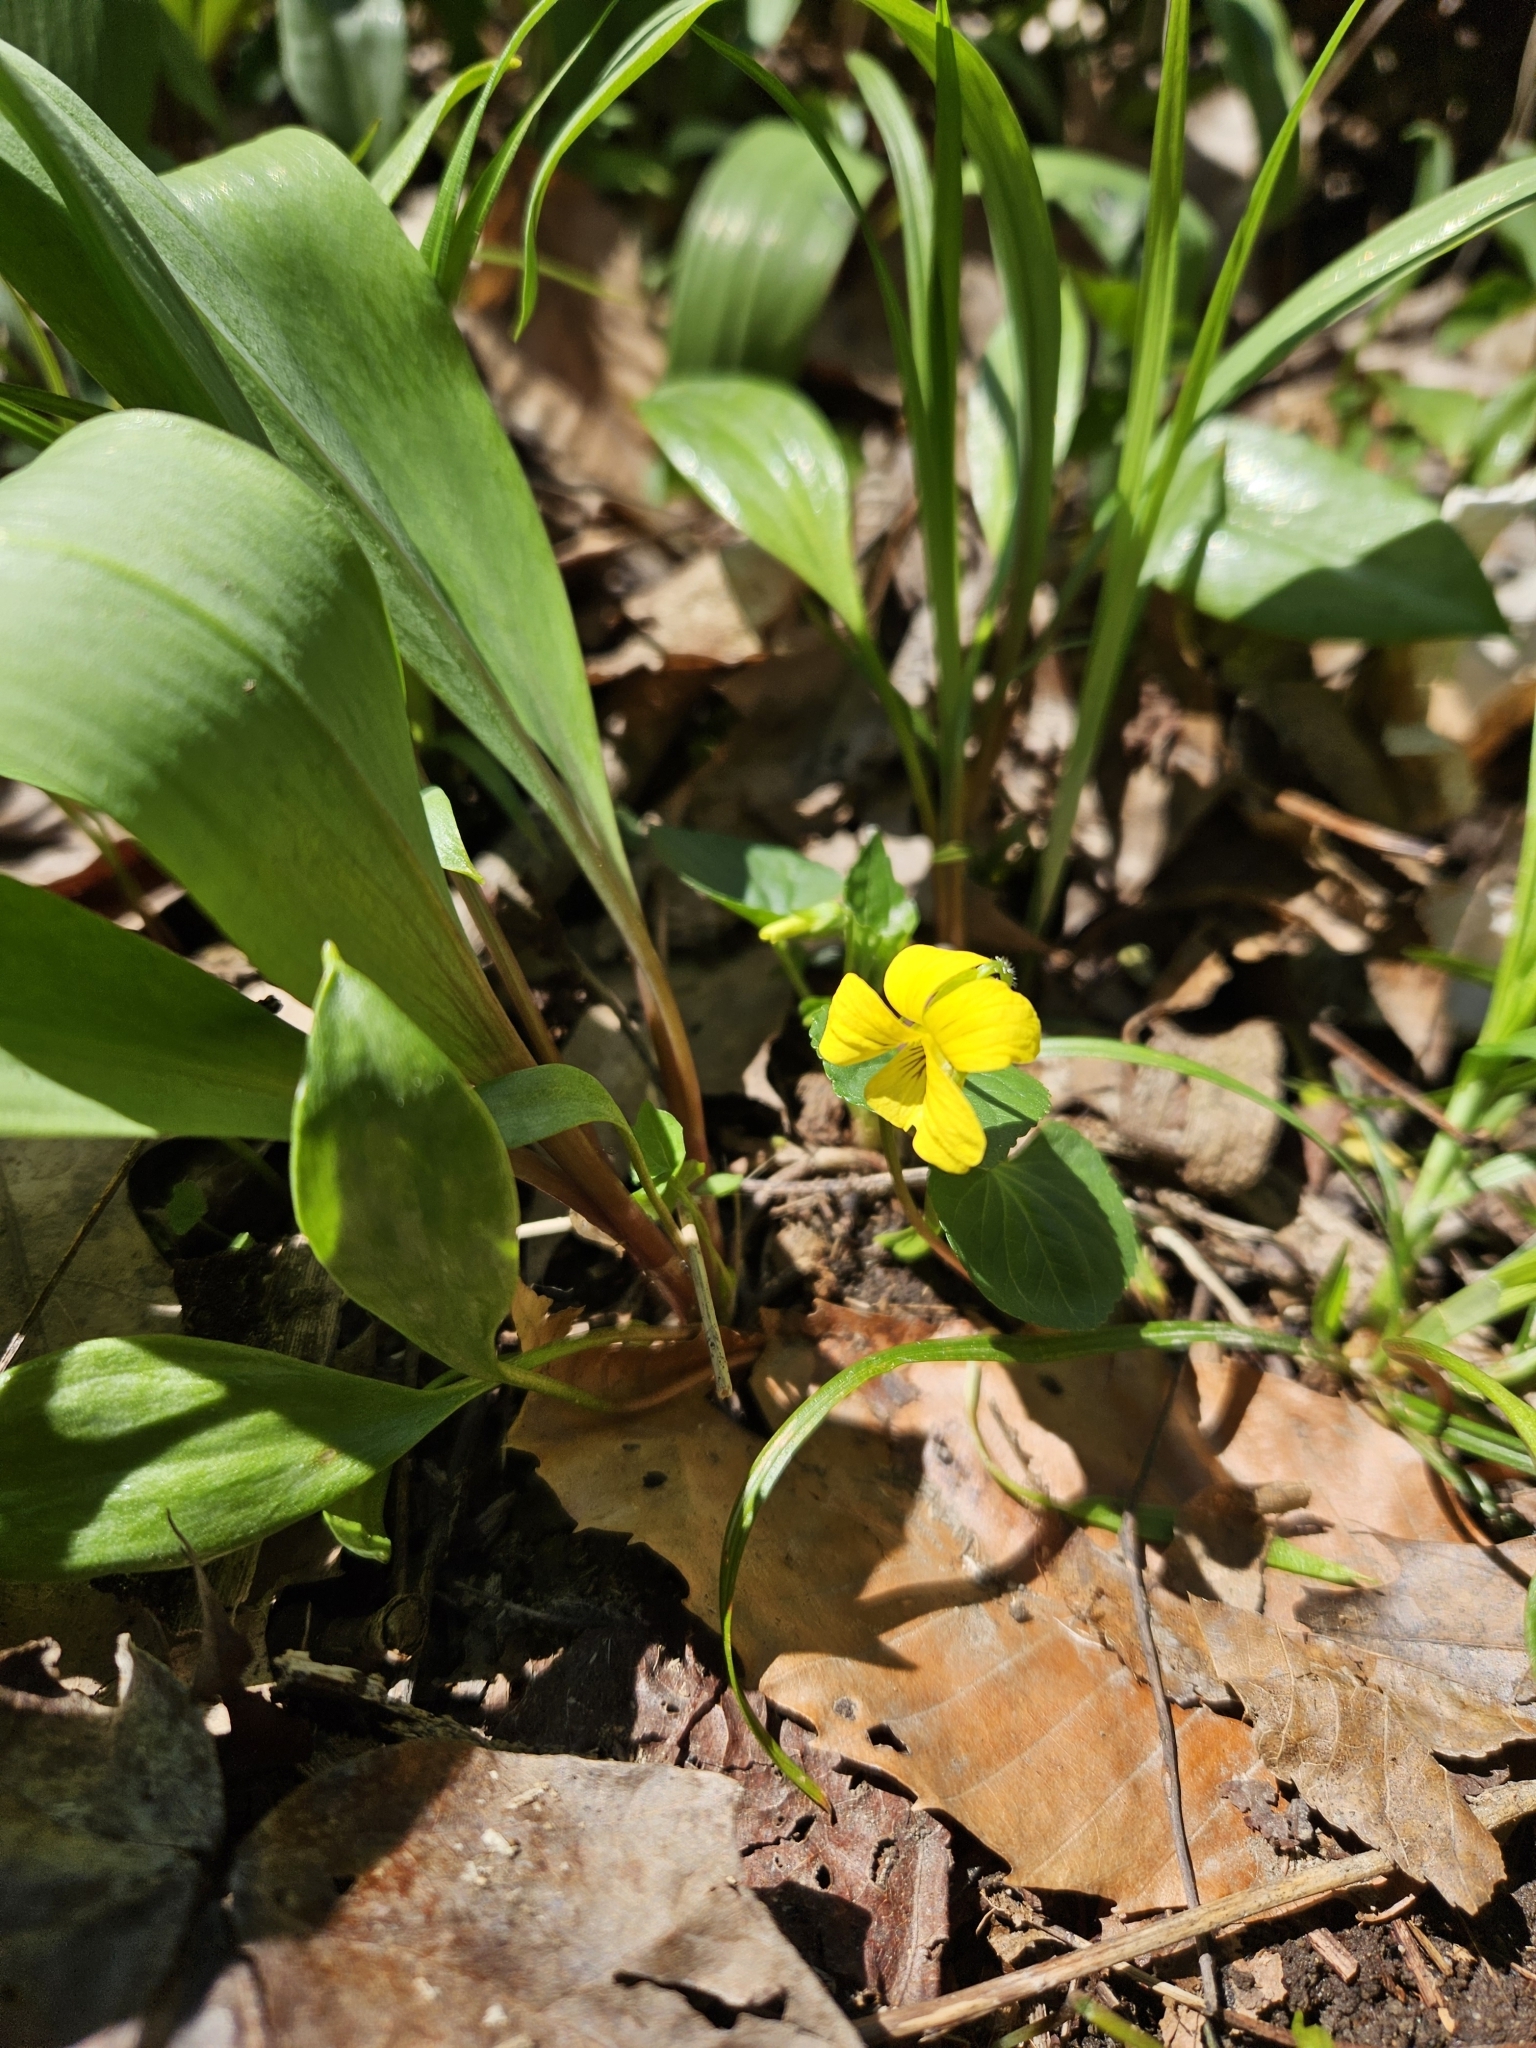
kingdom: Plantae
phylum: Tracheophyta
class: Magnoliopsida
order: Malpighiales
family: Violaceae
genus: Viola
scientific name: Viola eriocarpa
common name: Smooth yellow violet
